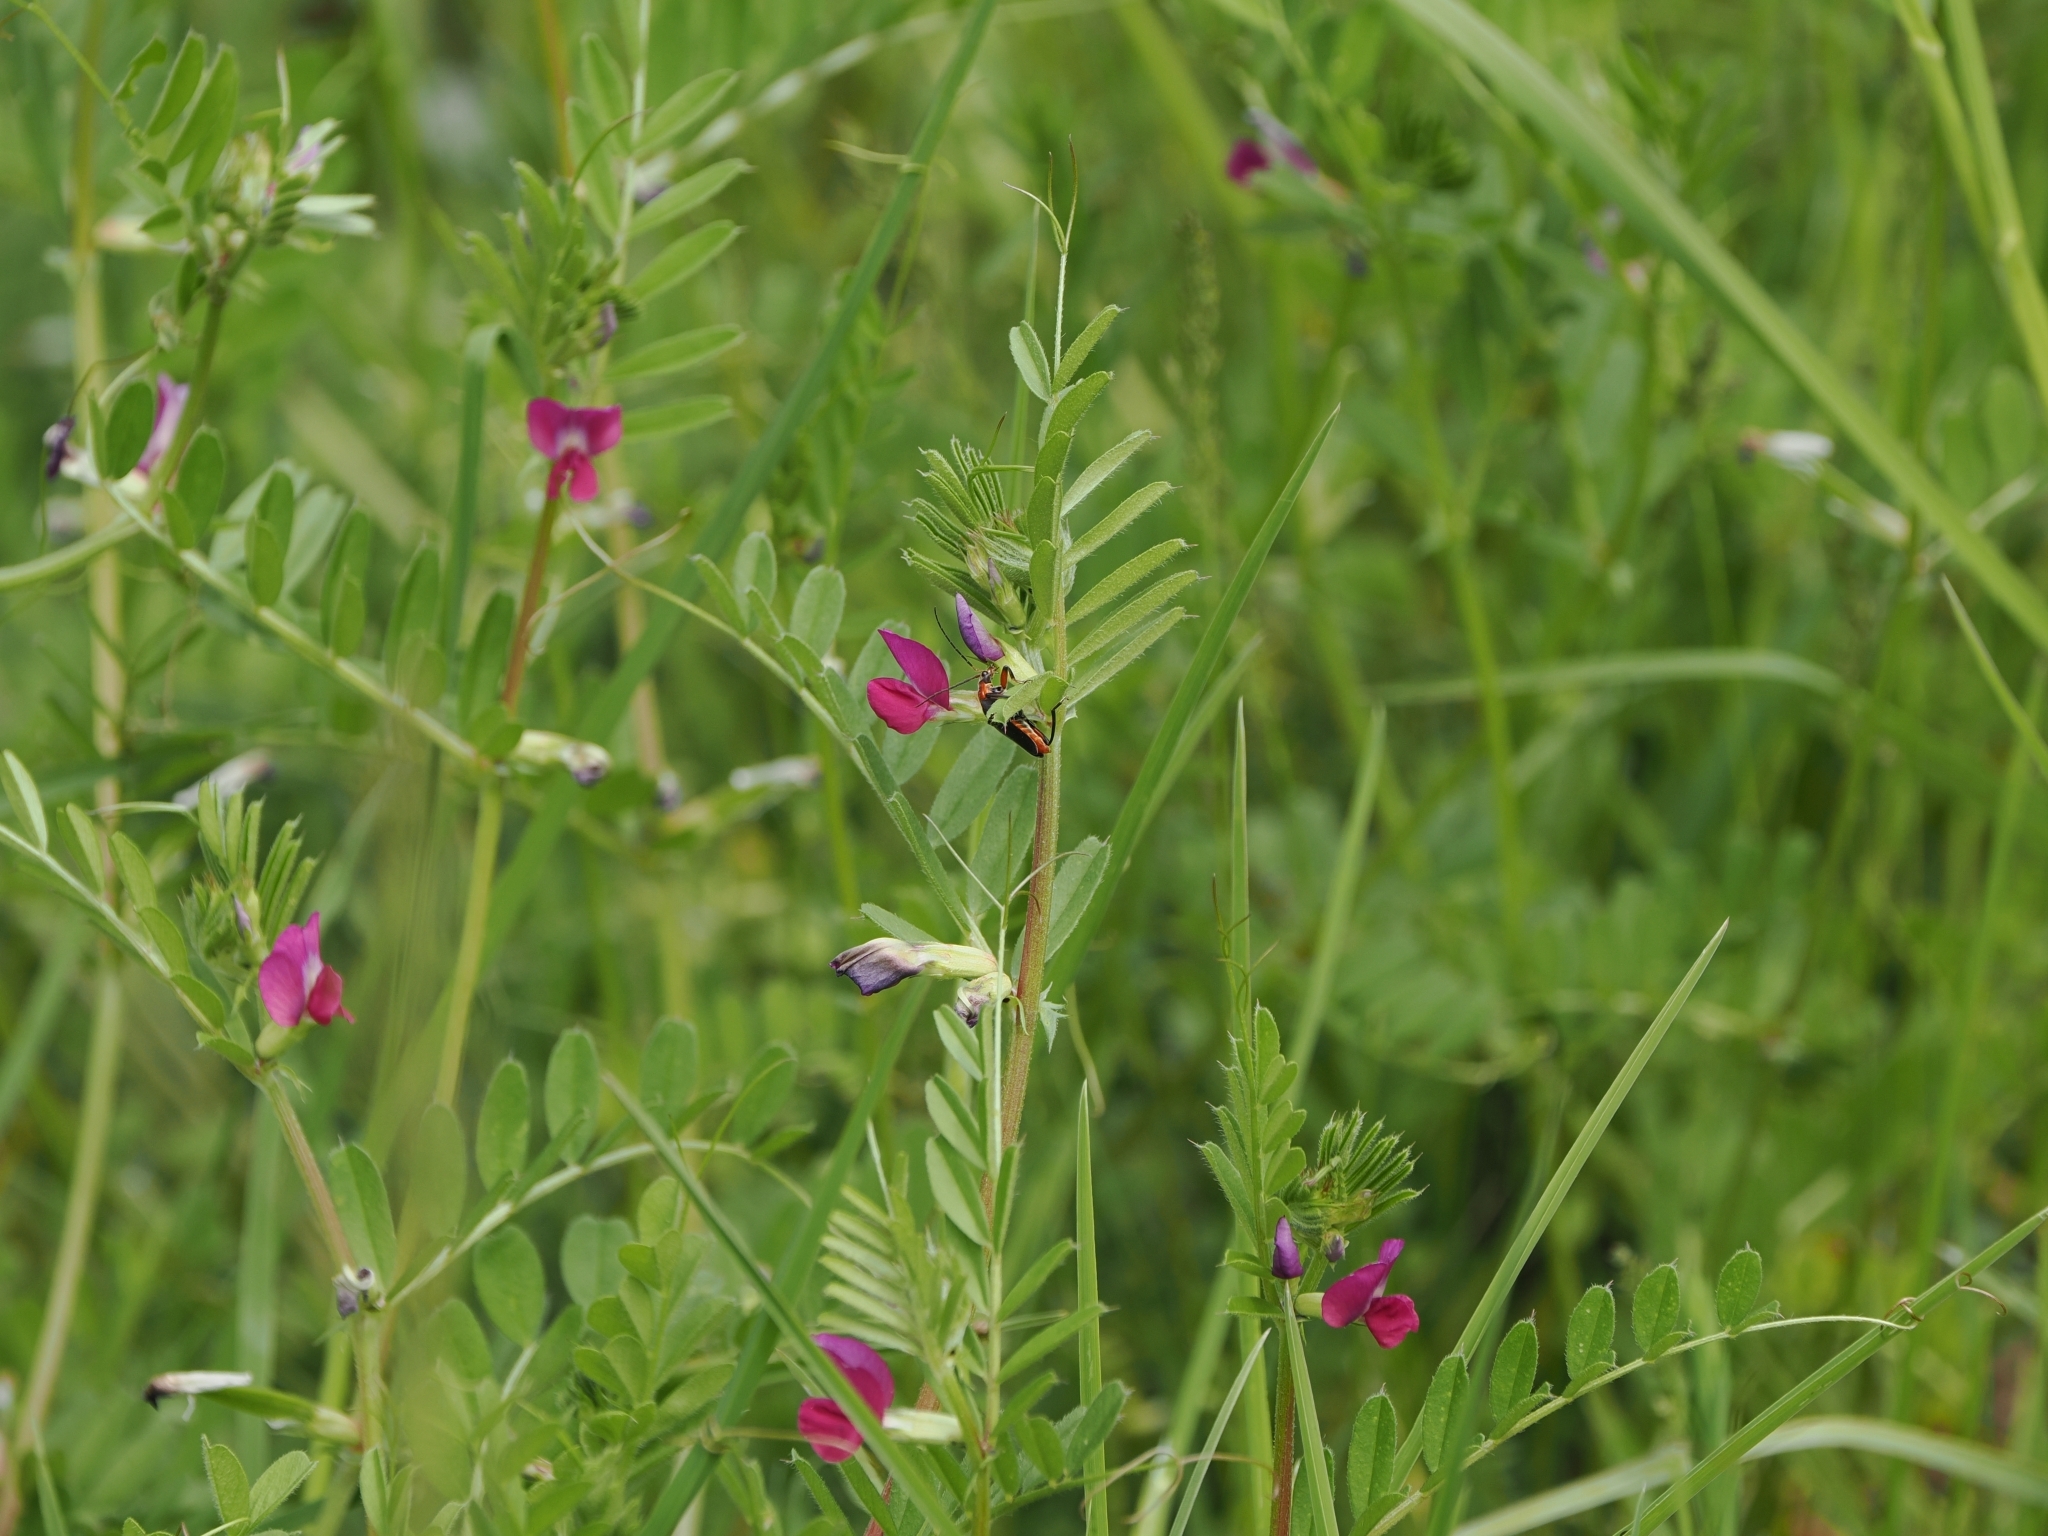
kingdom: Plantae
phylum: Tracheophyta
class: Magnoliopsida
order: Fabales
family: Fabaceae
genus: Vicia
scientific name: Vicia sativa
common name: Garden vetch
